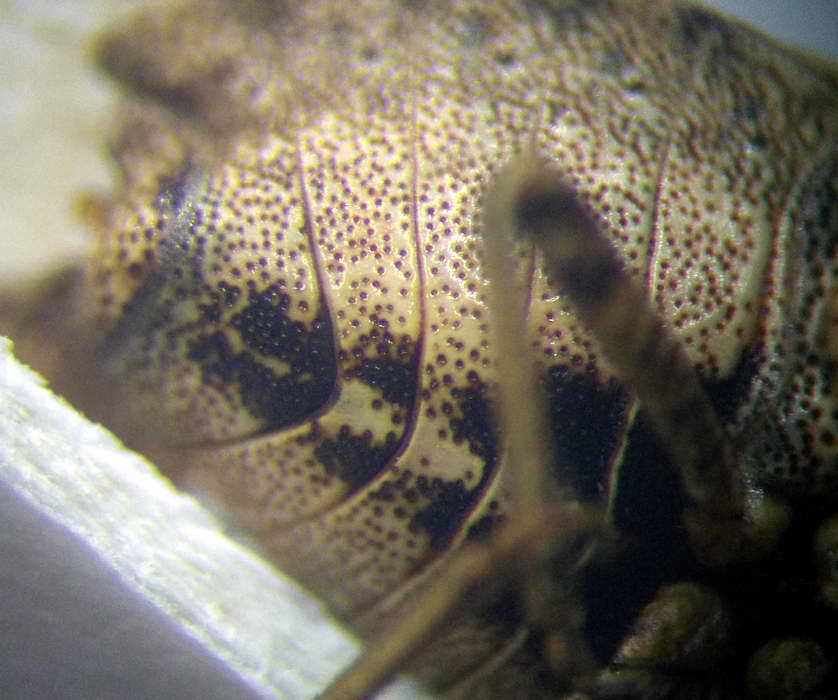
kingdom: Animalia
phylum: Arthropoda
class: Insecta
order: Hemiptera
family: Pentatomidae
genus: Holcostethus
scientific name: Holcostethus strictus
